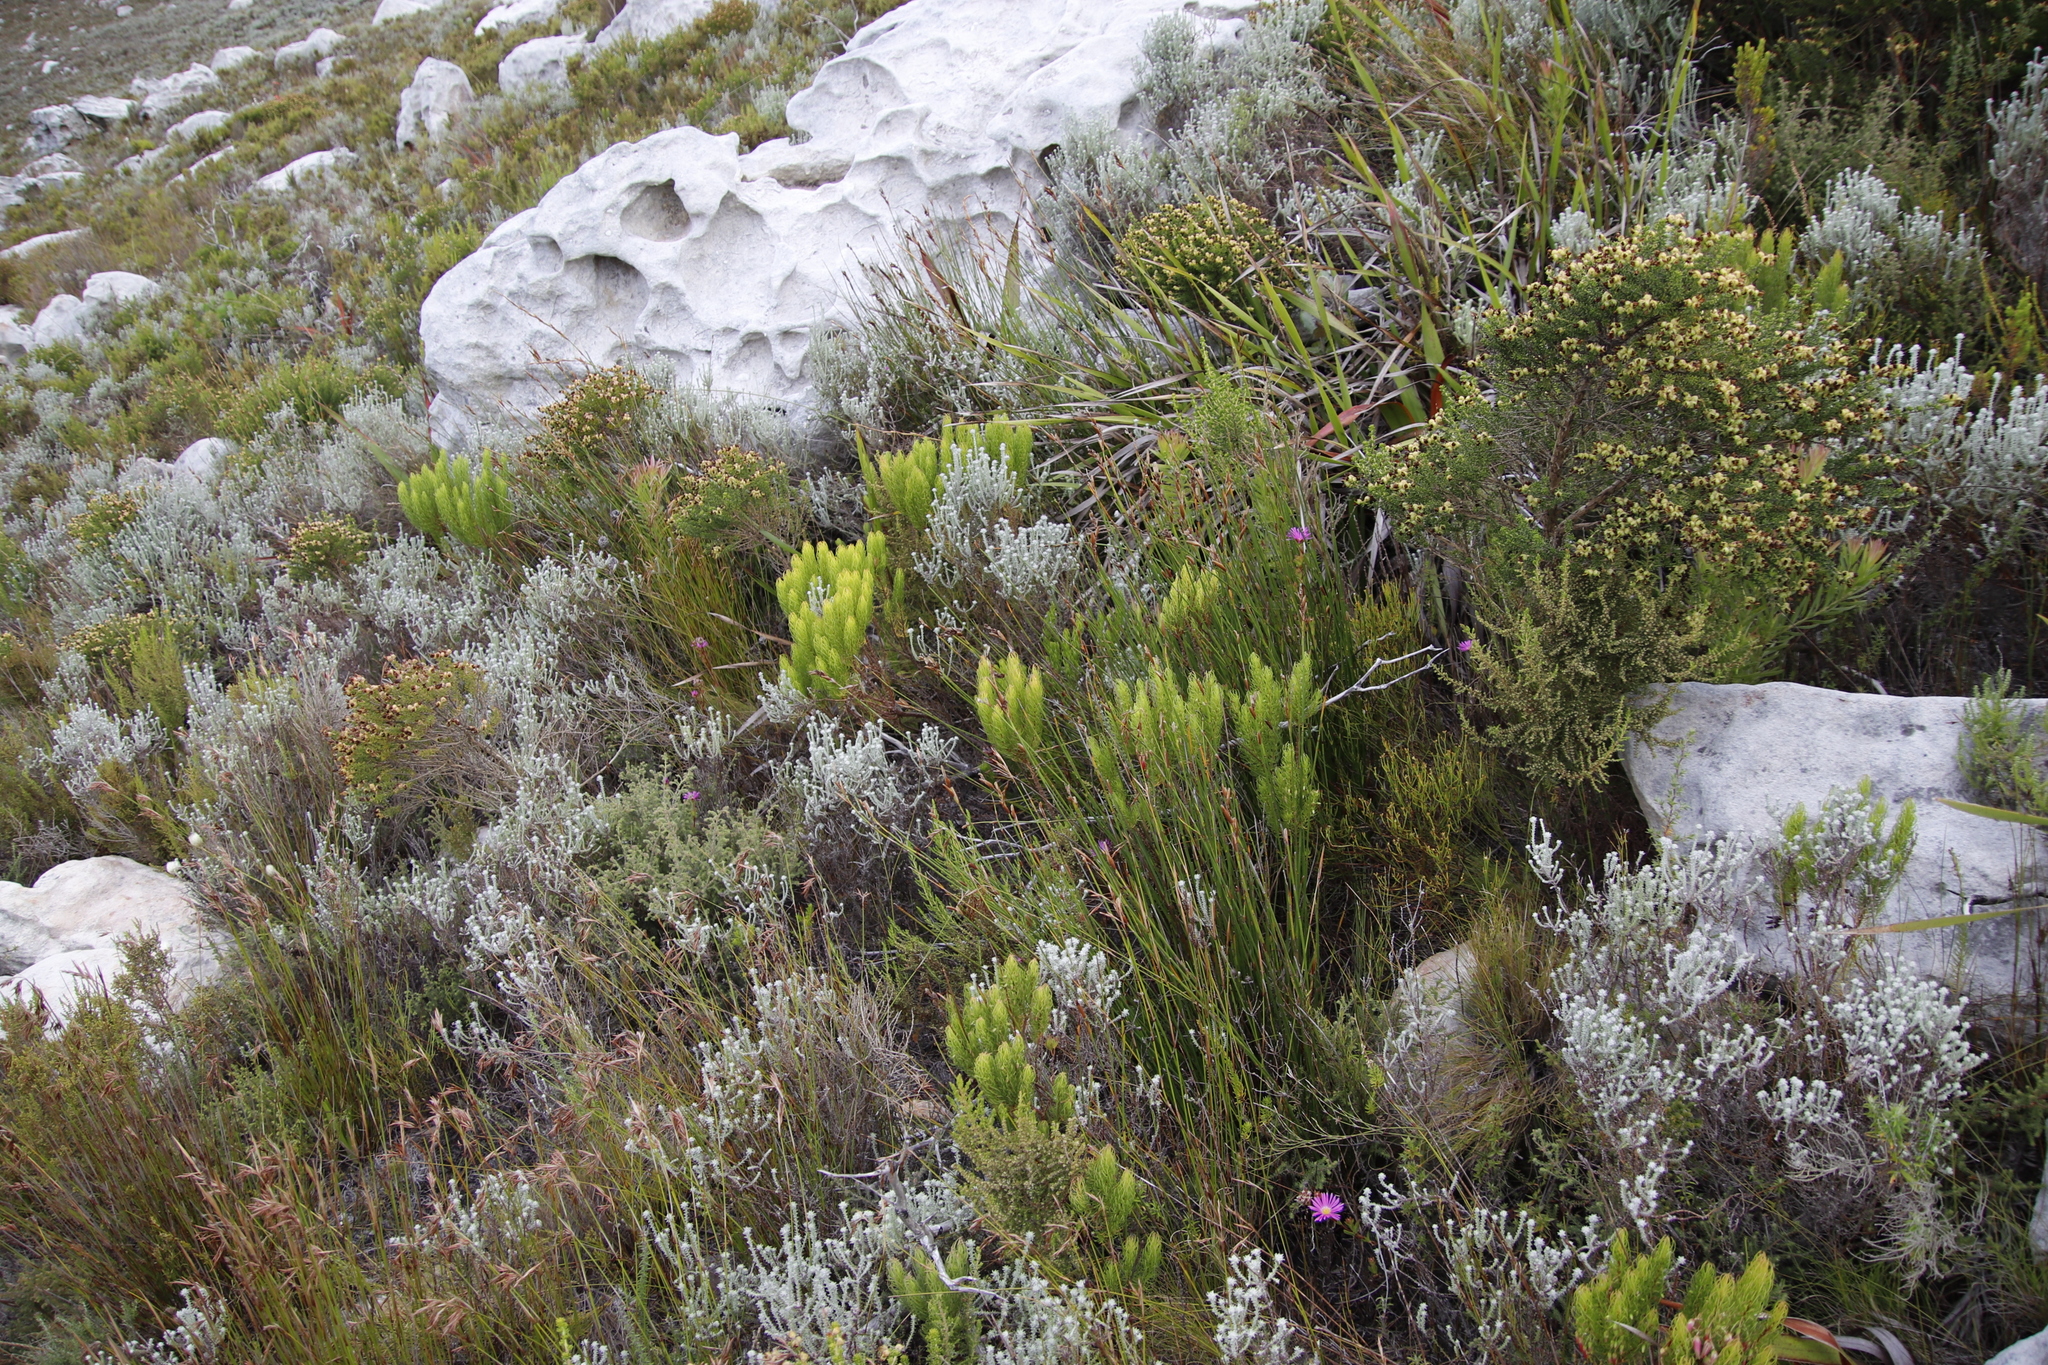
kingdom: Plantae
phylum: Tracheophyta
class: Magnoliopsida
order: Ericales
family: Ericaceae
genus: Erica
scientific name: Erica plukenetii
